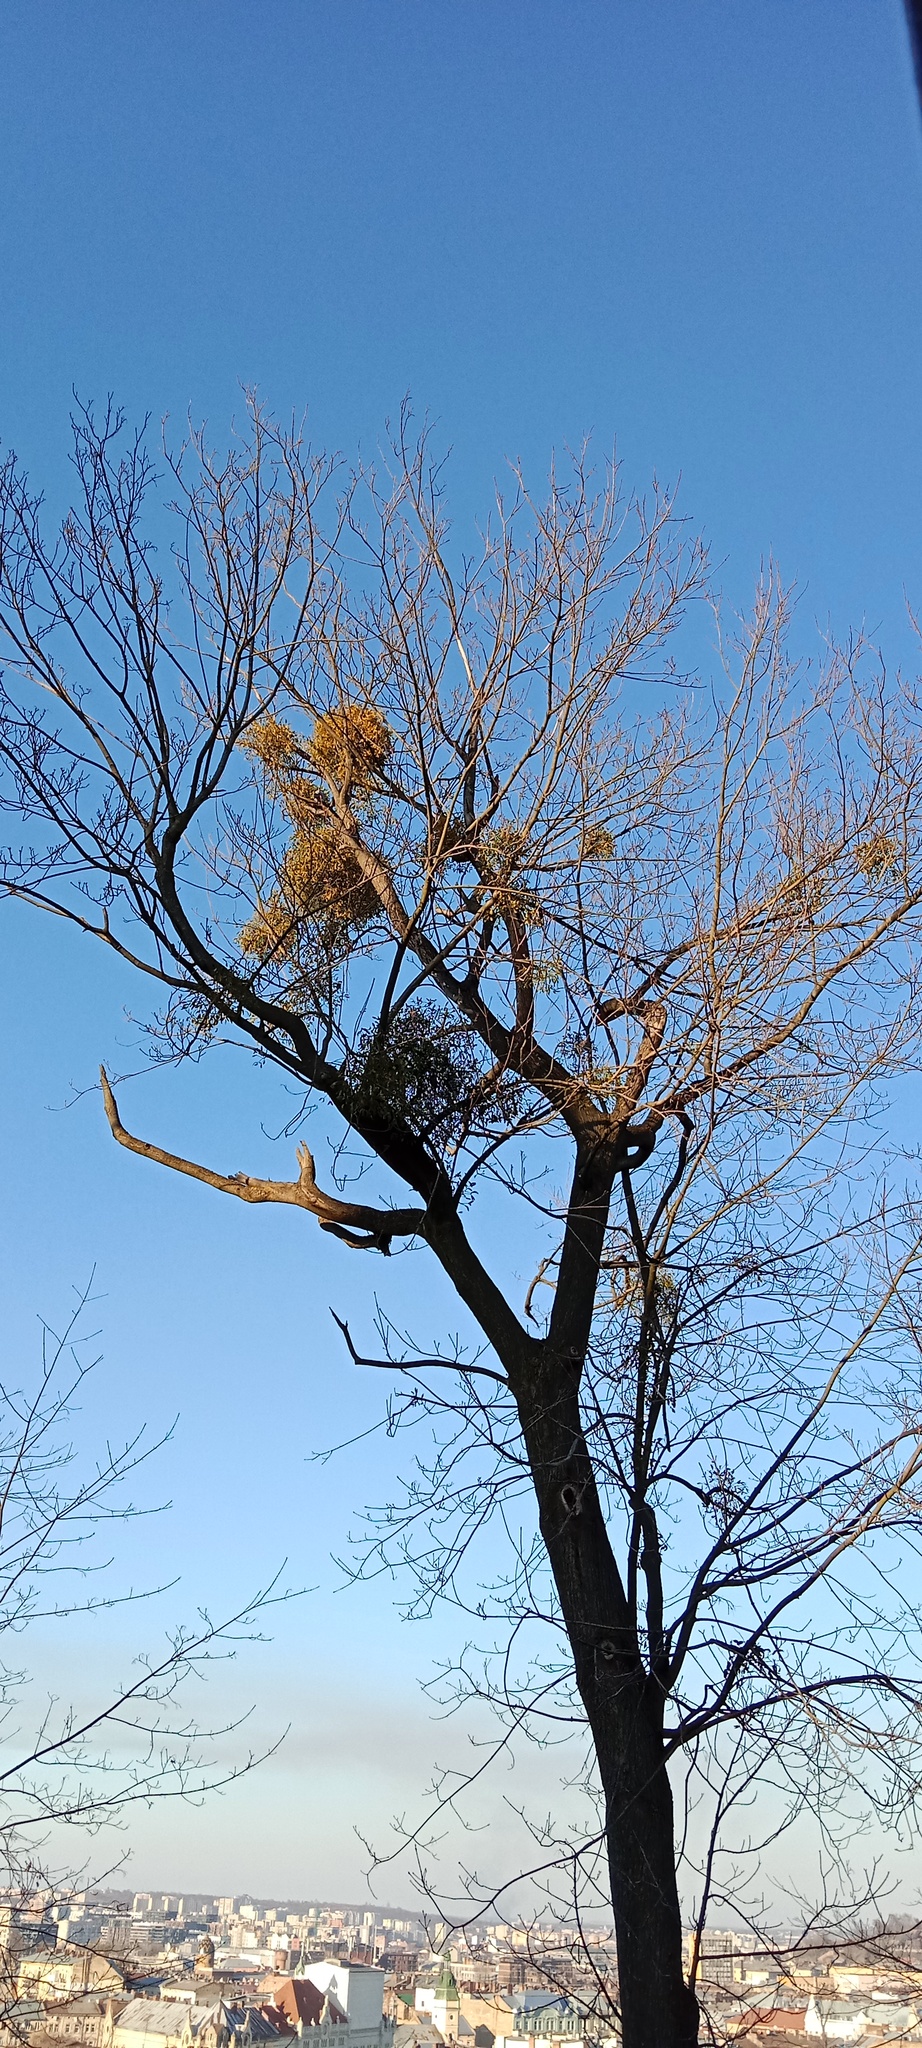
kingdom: Plantae
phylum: Tracheophyta
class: Magnoliopsida
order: Santalales
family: Viscaceae
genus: Viscum
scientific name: Viscum album
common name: Mistletoe
